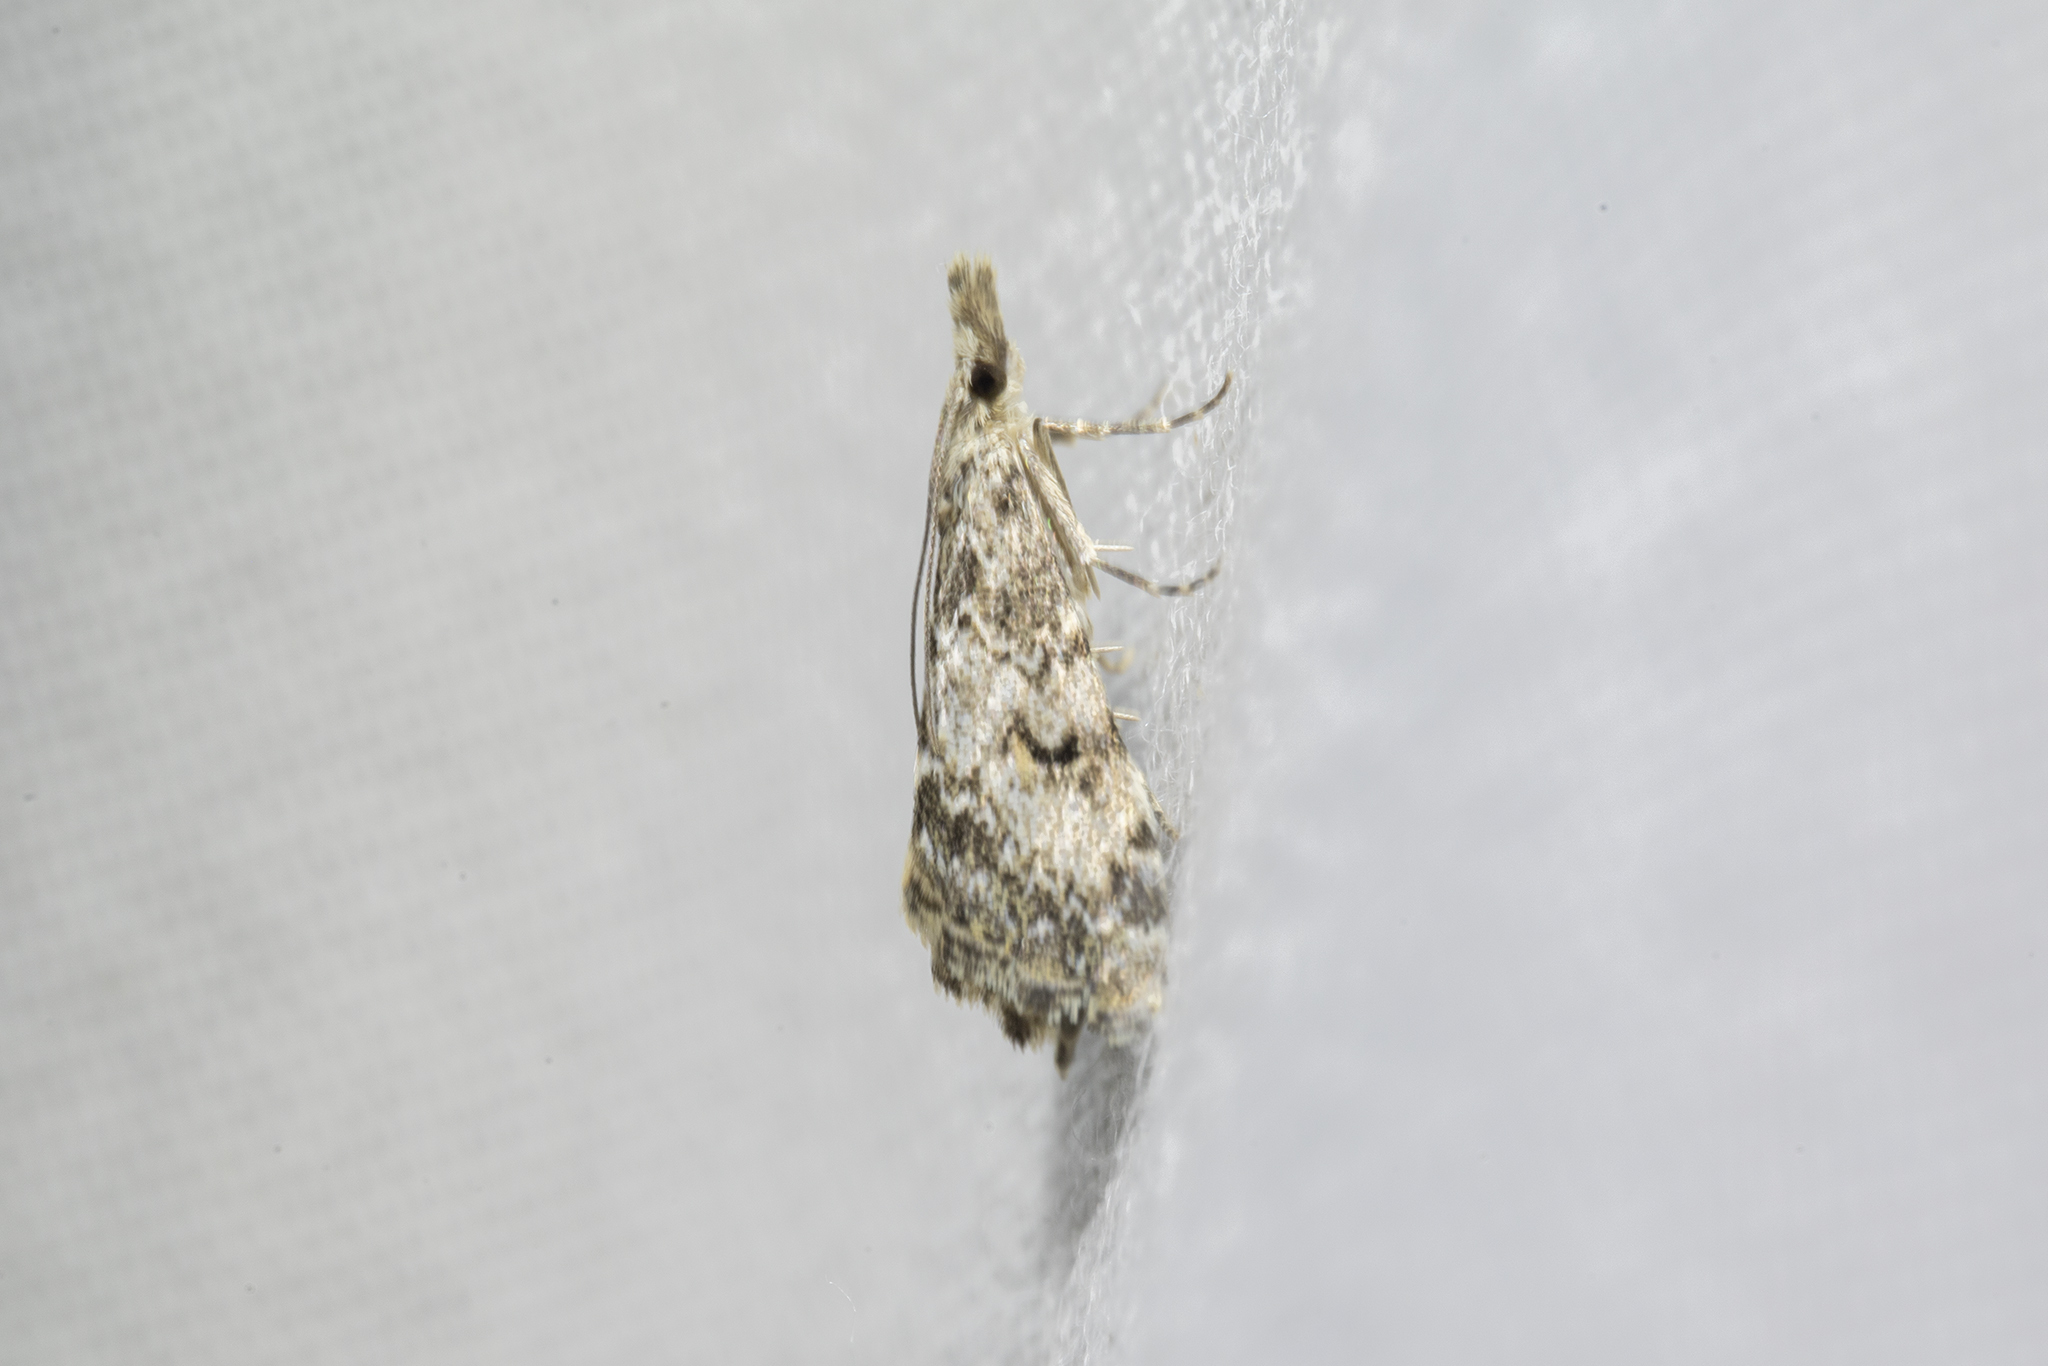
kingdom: Animalia
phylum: Arthropoda
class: Insecta
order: Lepidoptera
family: Crambidae
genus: Glaucocharis
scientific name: Glaucocharis elaina
